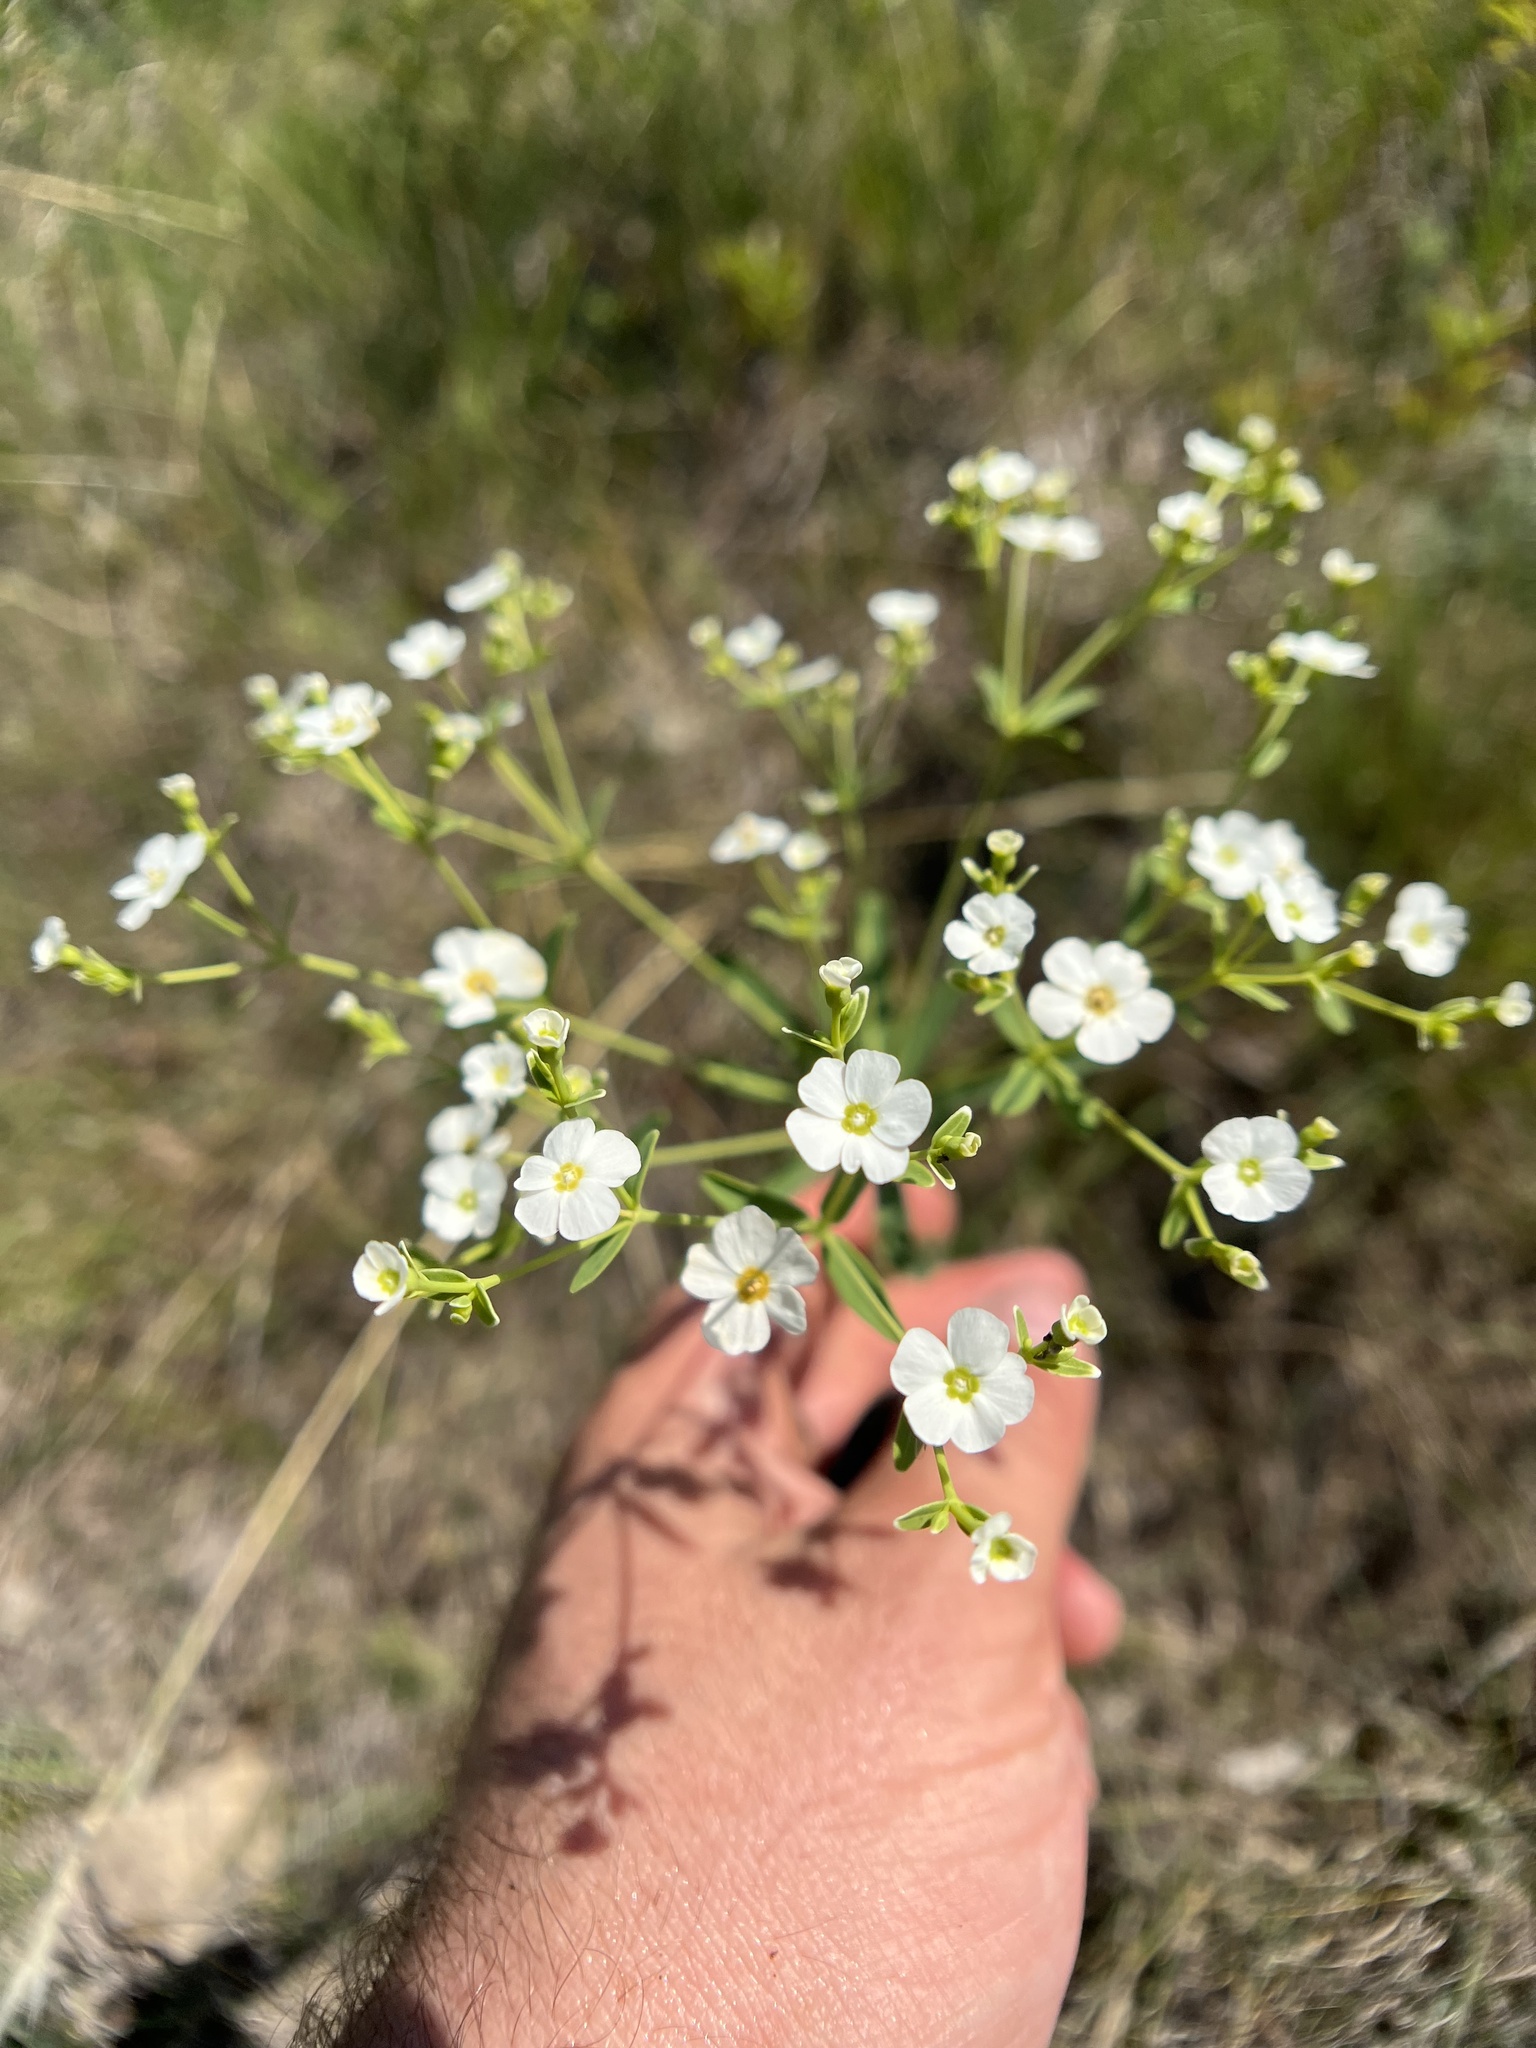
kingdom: Plantae
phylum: Tracheophyta
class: Magnoliopsida
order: Malpighiales
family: Euphorbiaceae
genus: Euphorbia
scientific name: Euphorbia corollata
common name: Flowering spurge
